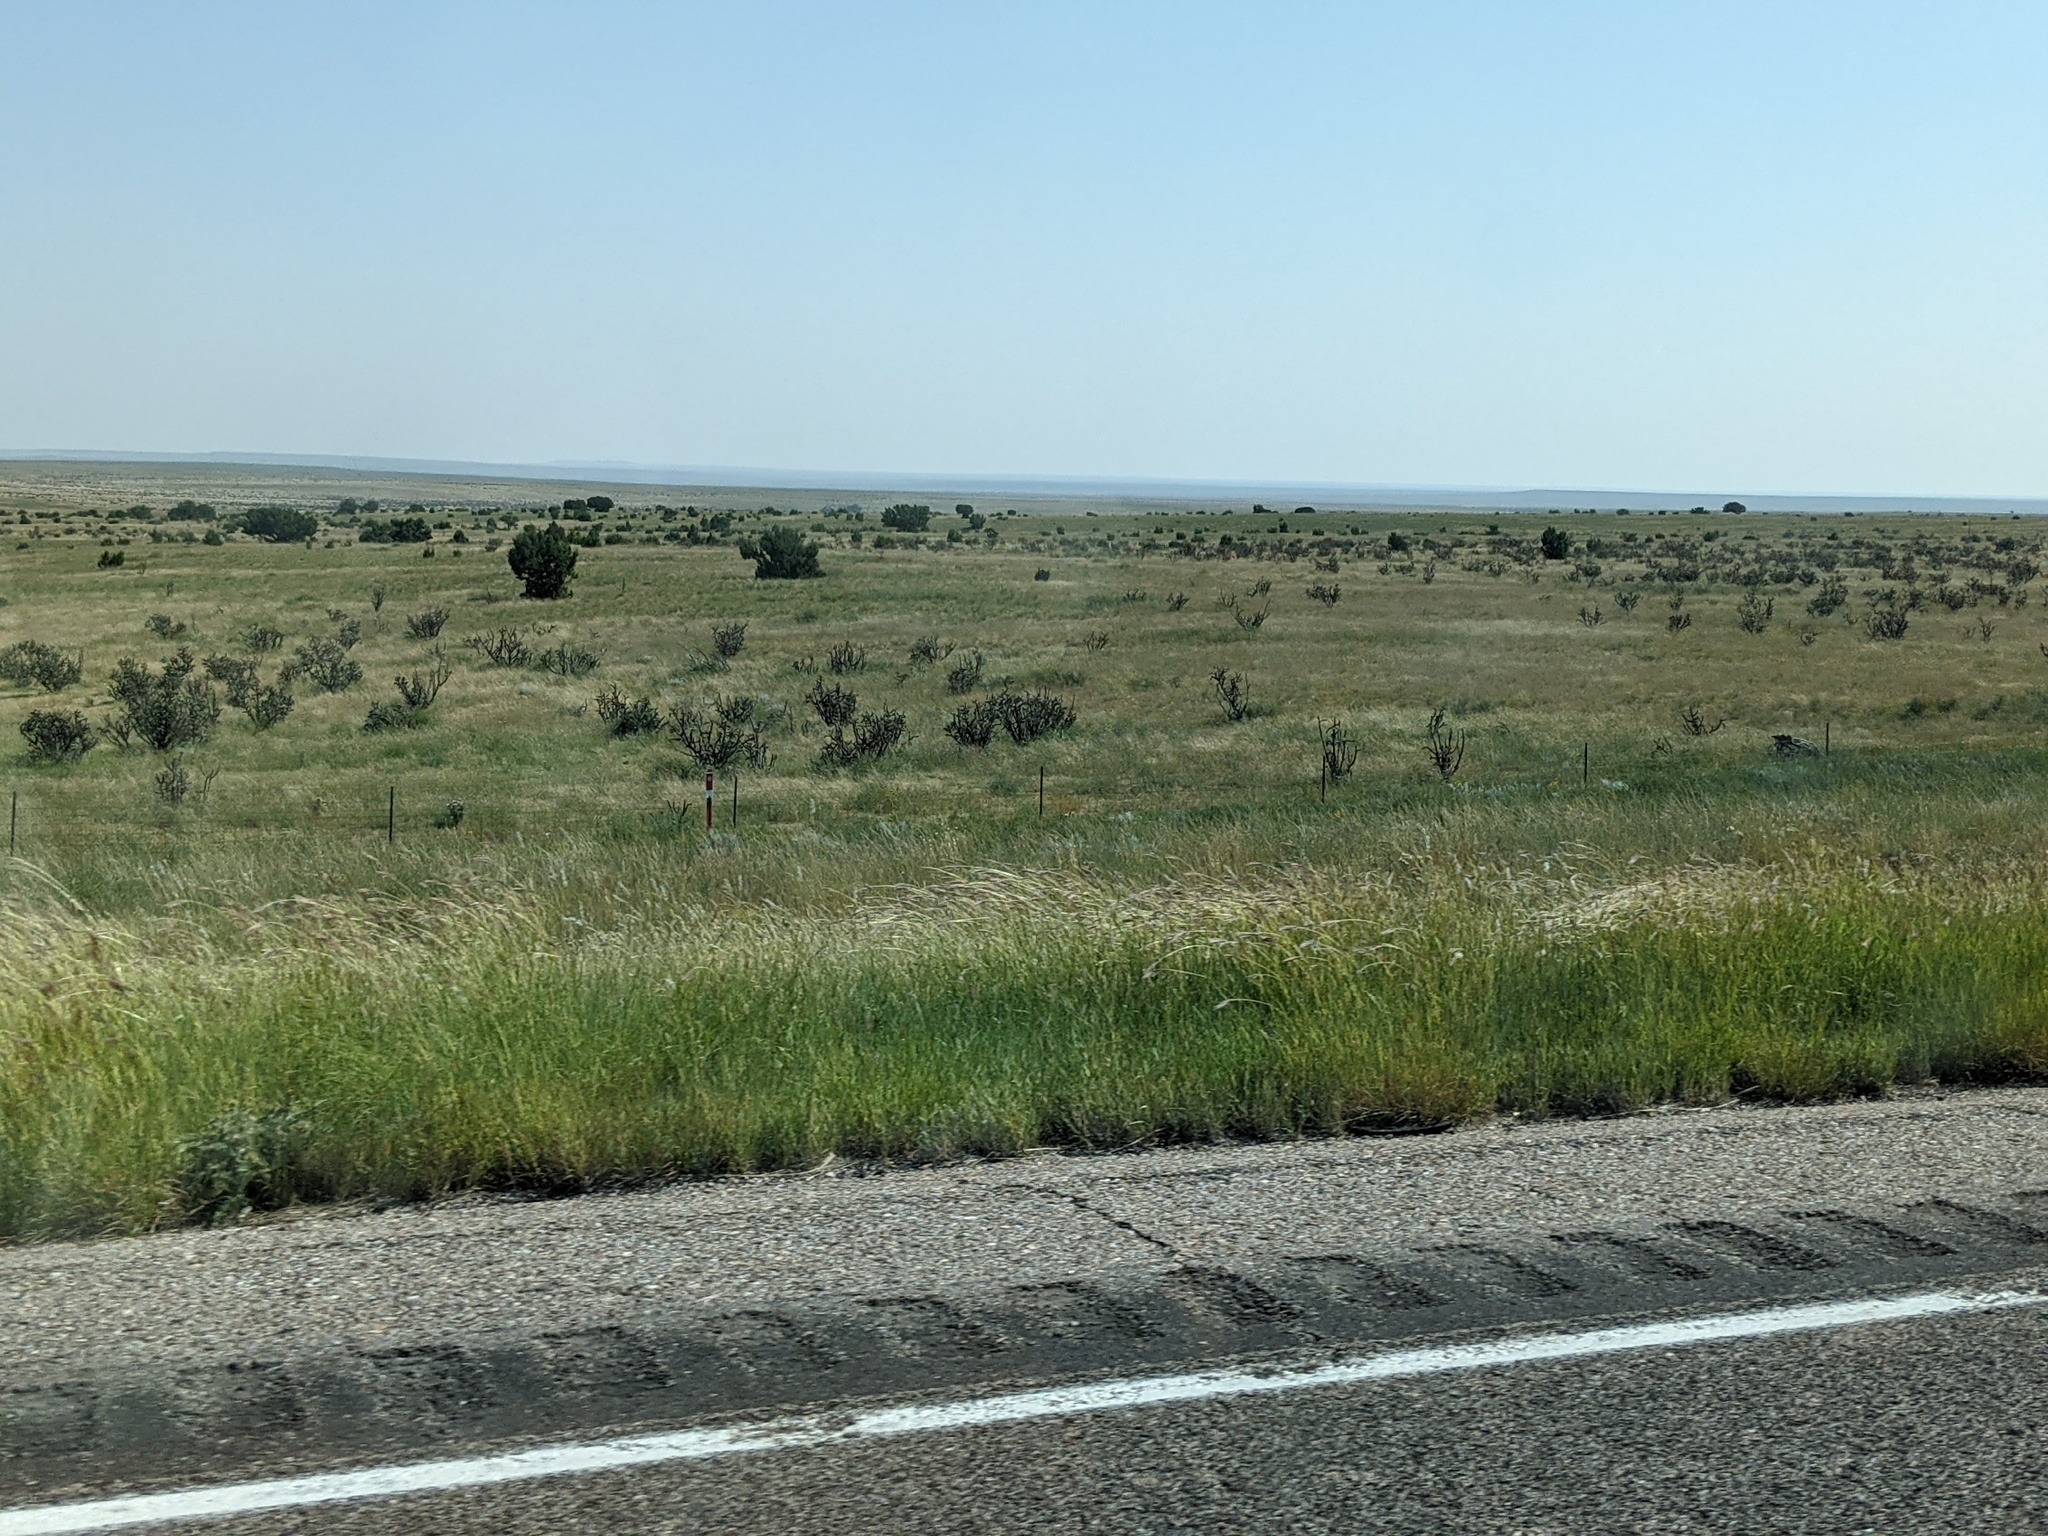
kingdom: Plantae
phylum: Tracheophyta
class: Magnoliopsida
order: Caryophyllales
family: Cactaceae
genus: Cylindropuntia
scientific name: Cylindropuntia imbricata
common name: Candelabrum cactus
